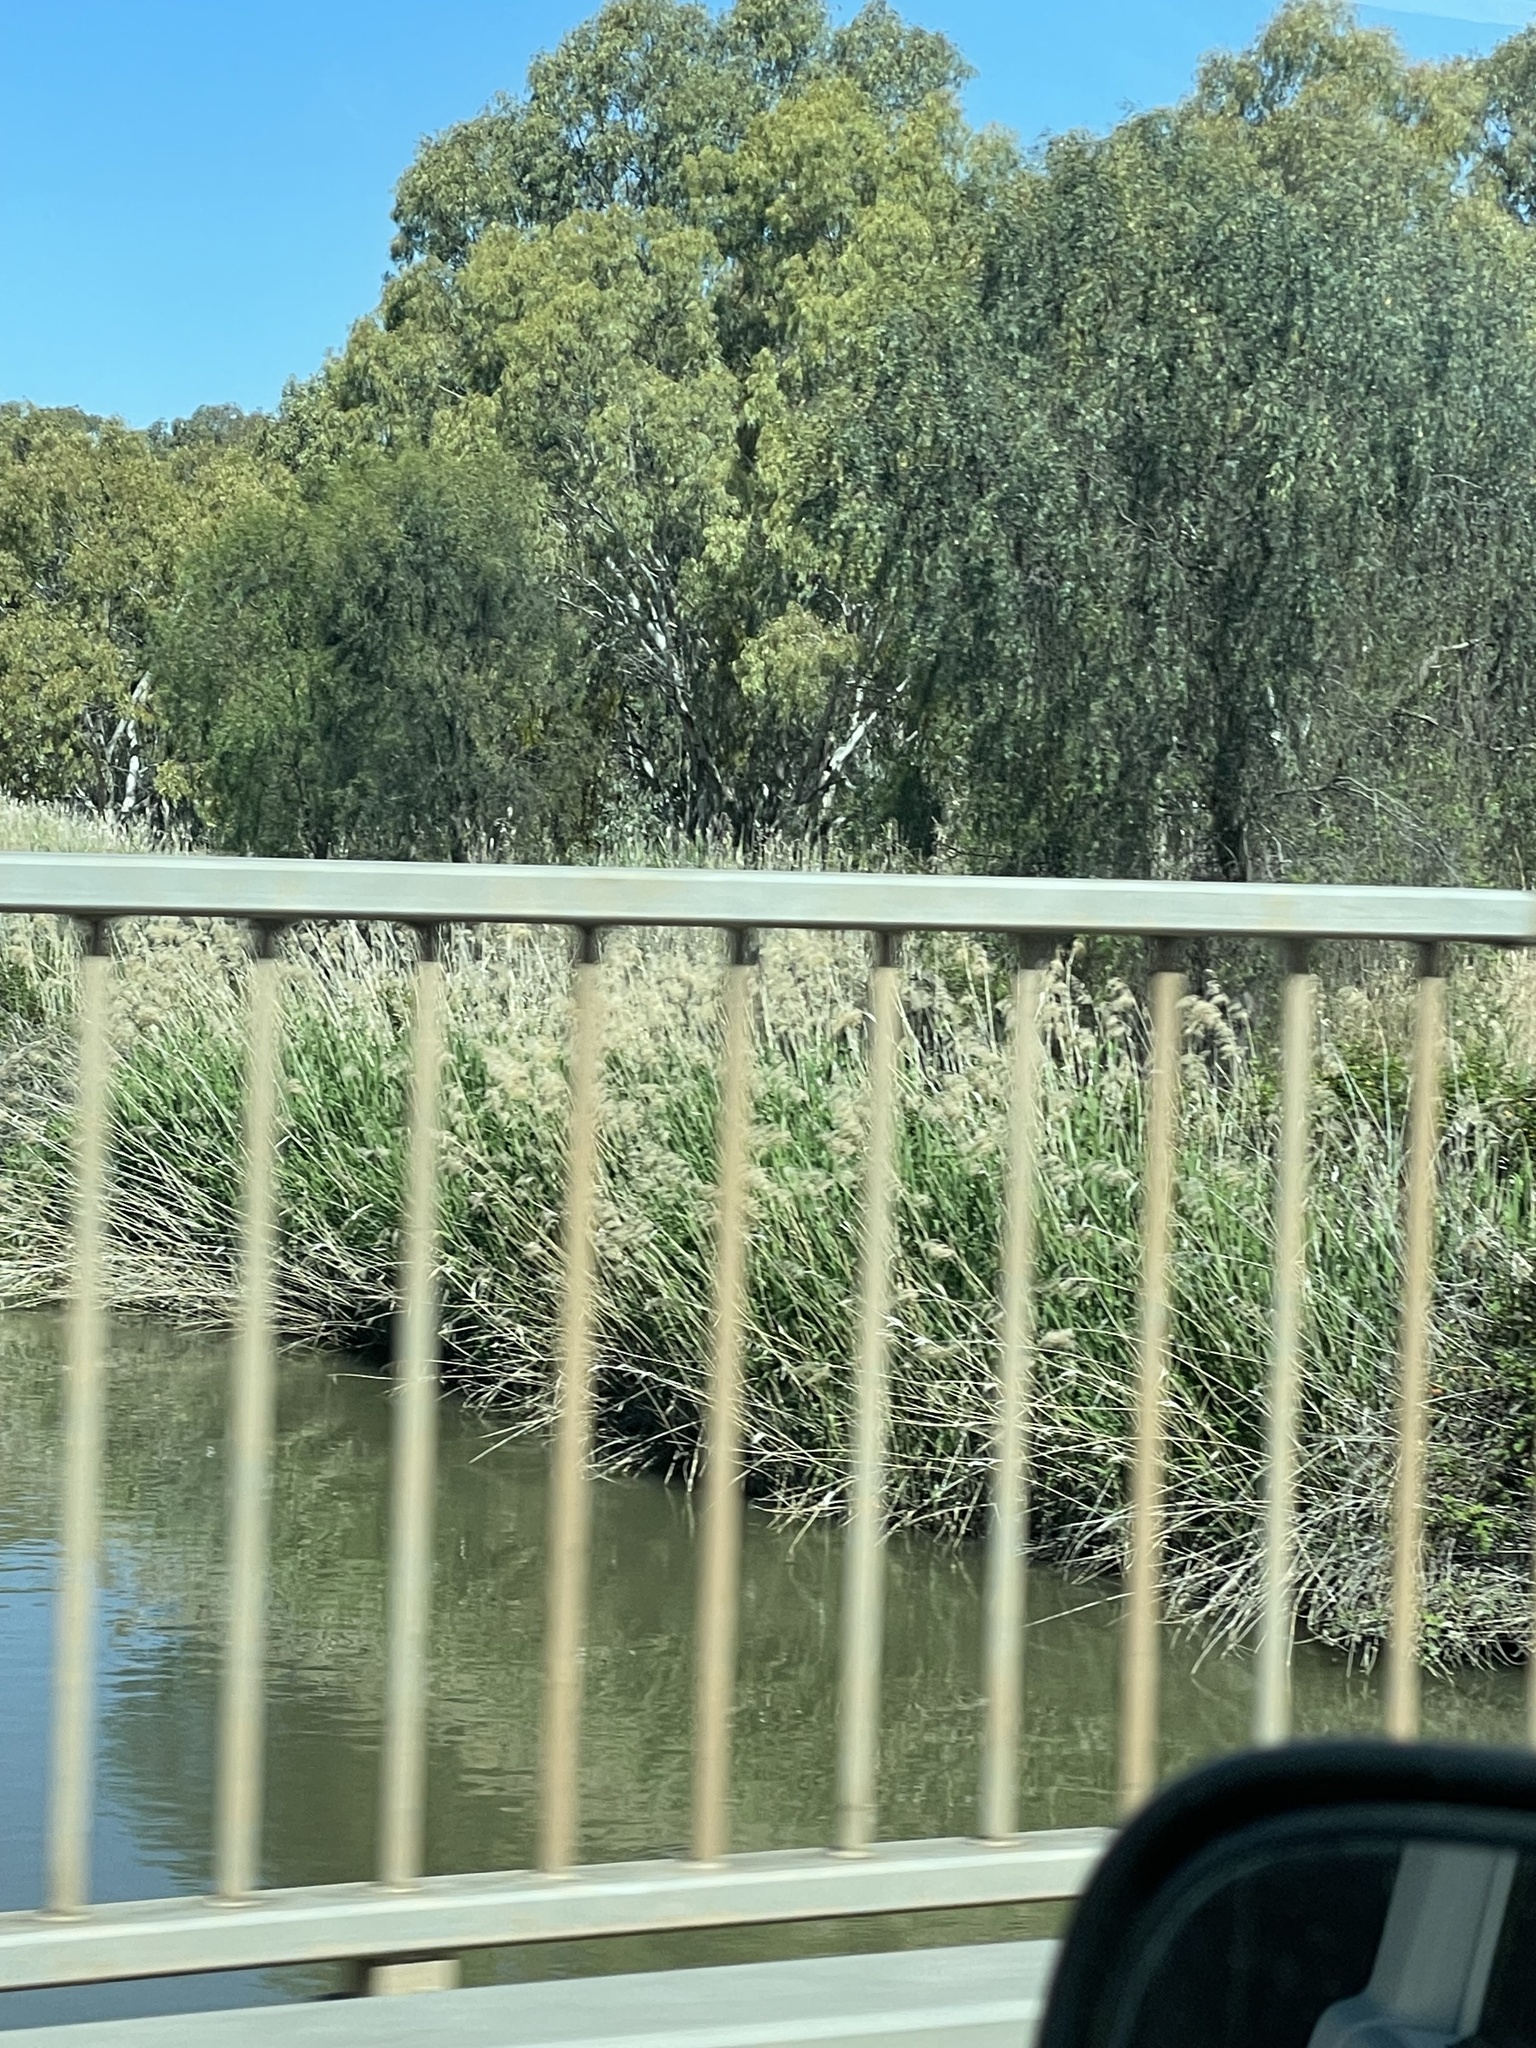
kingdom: Plantae
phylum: Tracheophyta
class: Liliopsida
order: Poales
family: Poaceae
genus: Phragmites
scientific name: Phragmites australis
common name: Common reed
